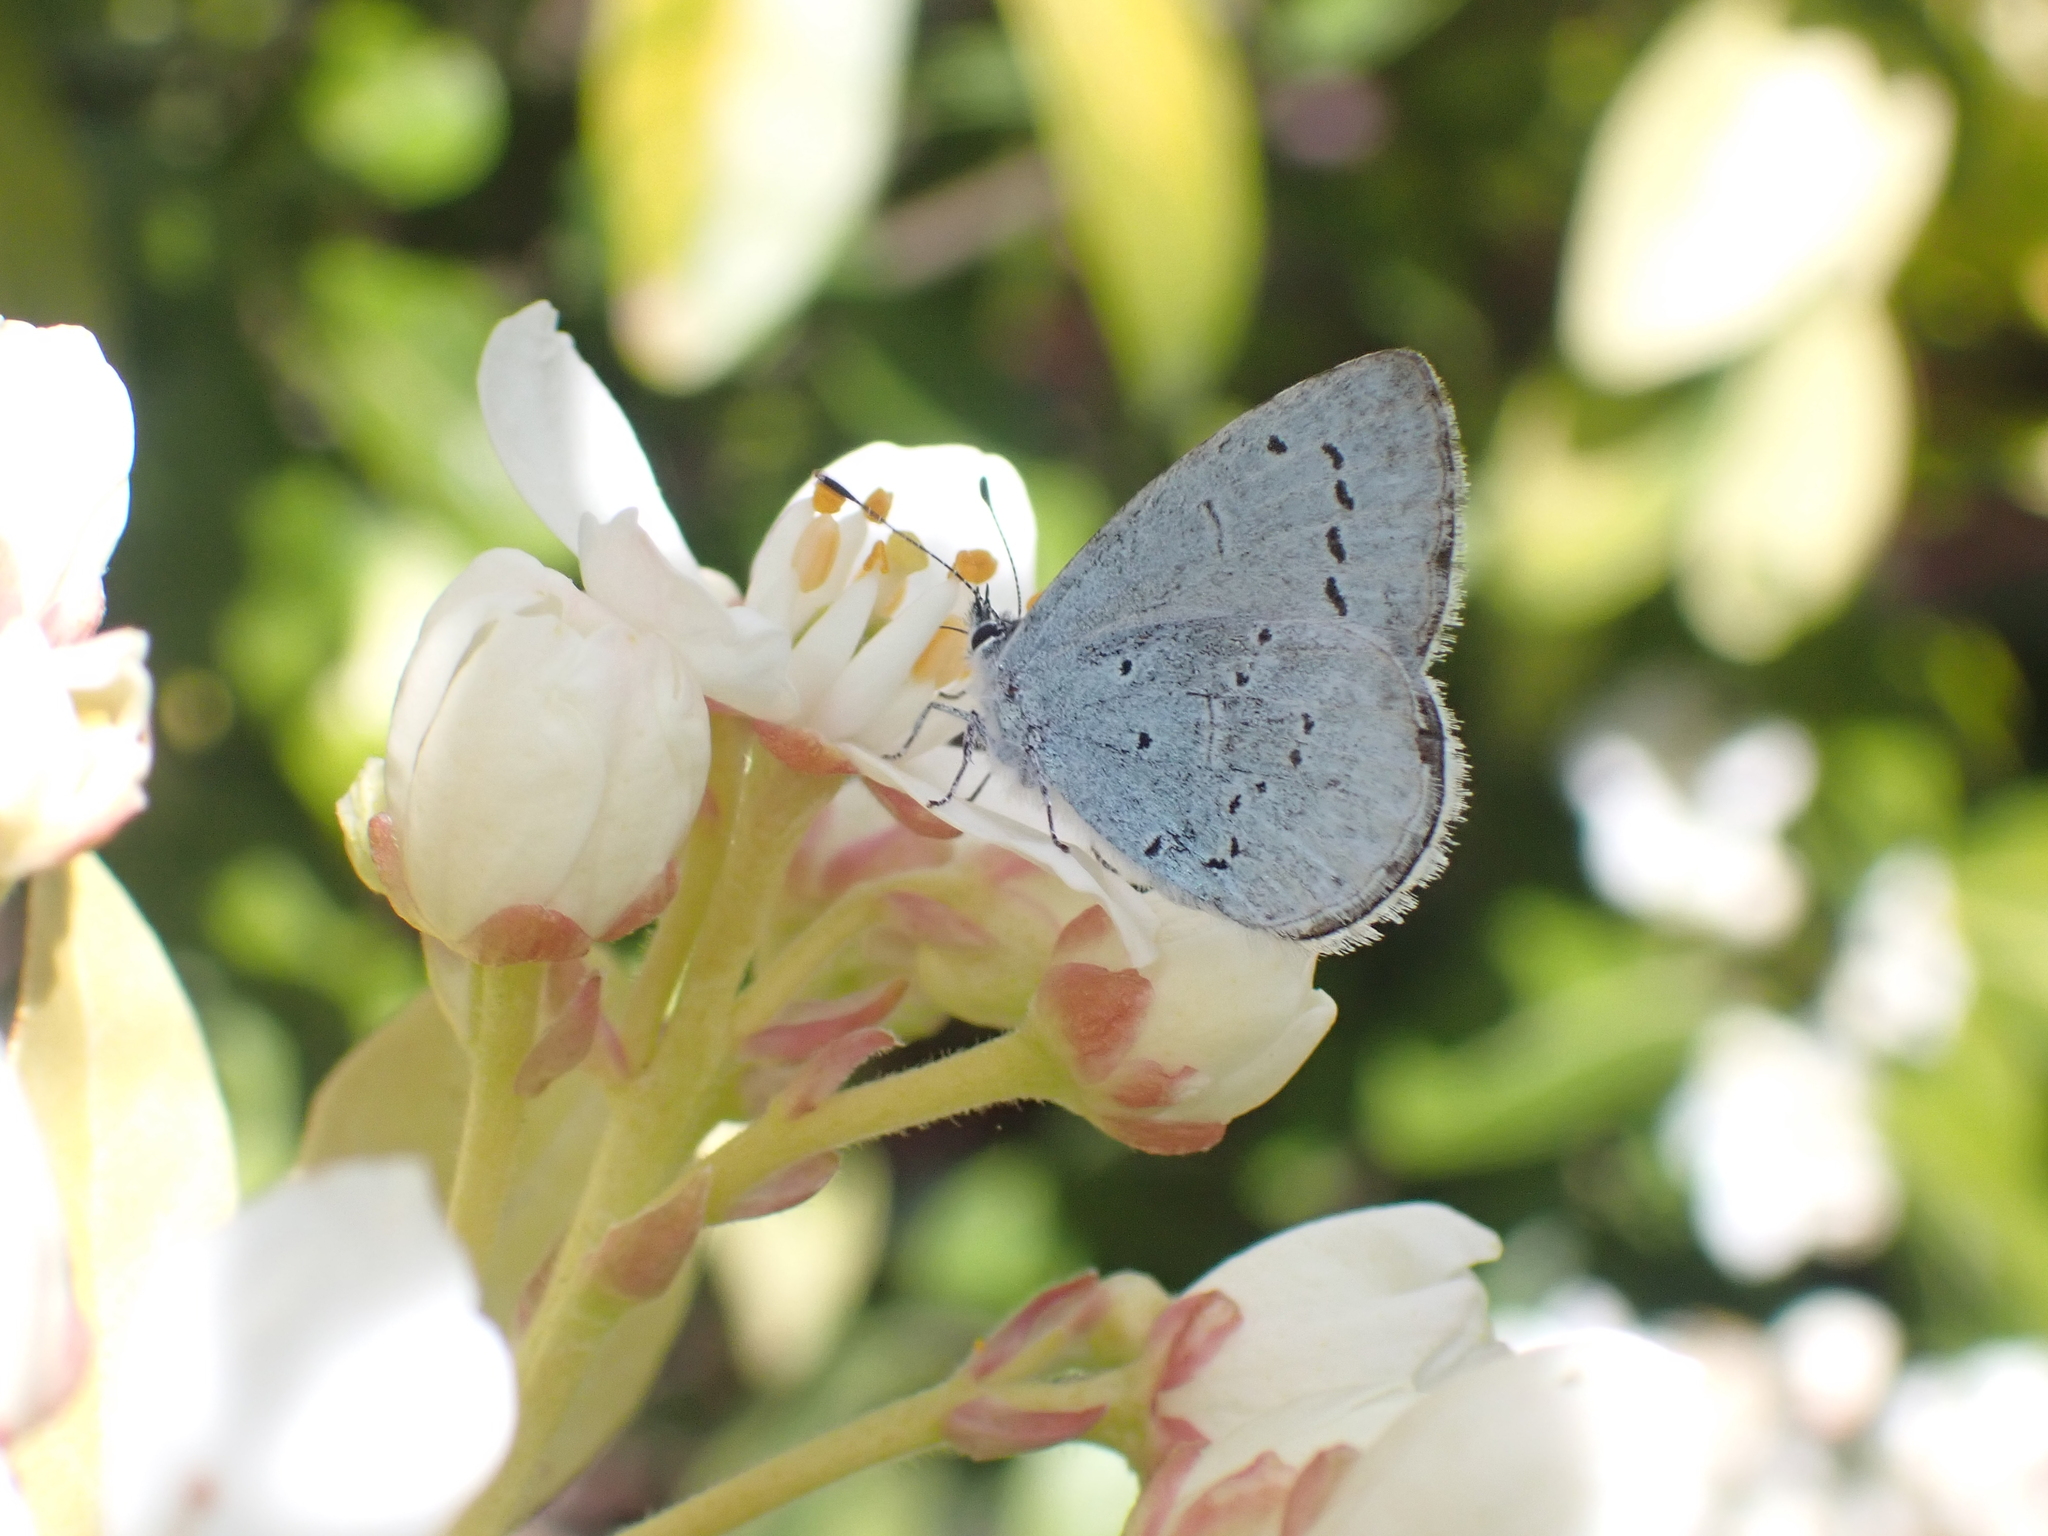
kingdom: Animalia
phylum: Arthropoda
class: Insecta
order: Lepidoptera
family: Lycaenidae
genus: Celastrina
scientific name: Celastrina argiolus
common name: Holly blue
